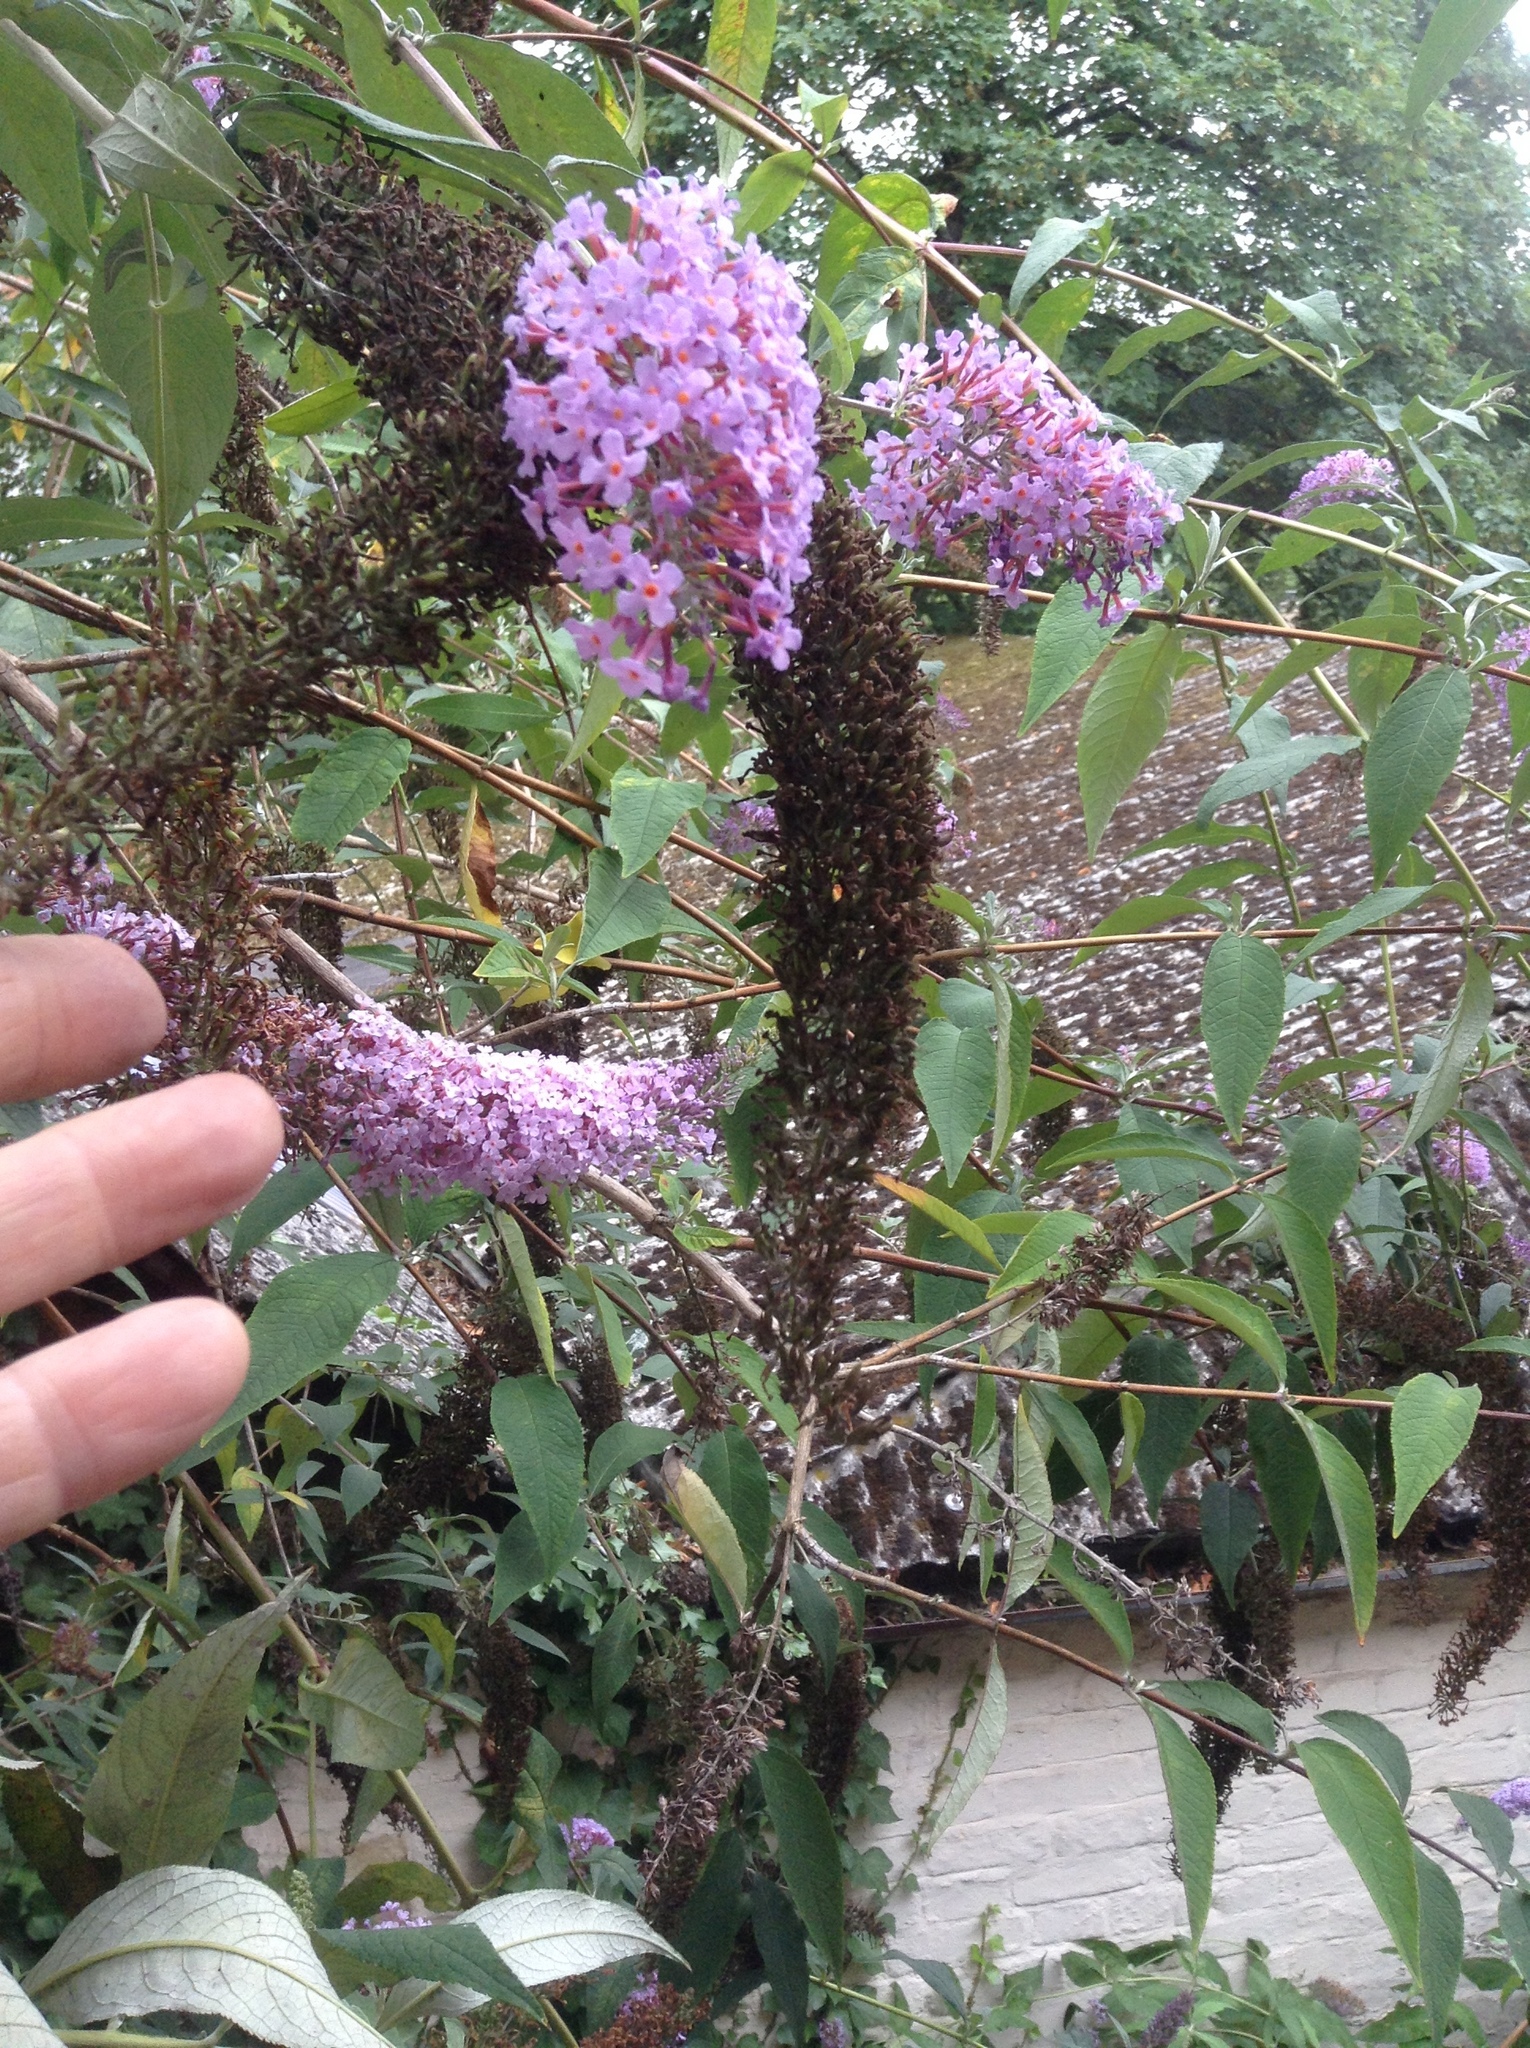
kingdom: Plantae
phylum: Tracheophyta
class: Magnoliopsida
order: Lamiales
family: Scrophulariaceae
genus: Buddleja
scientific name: Buddleja davidii
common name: Butterfly-bush
